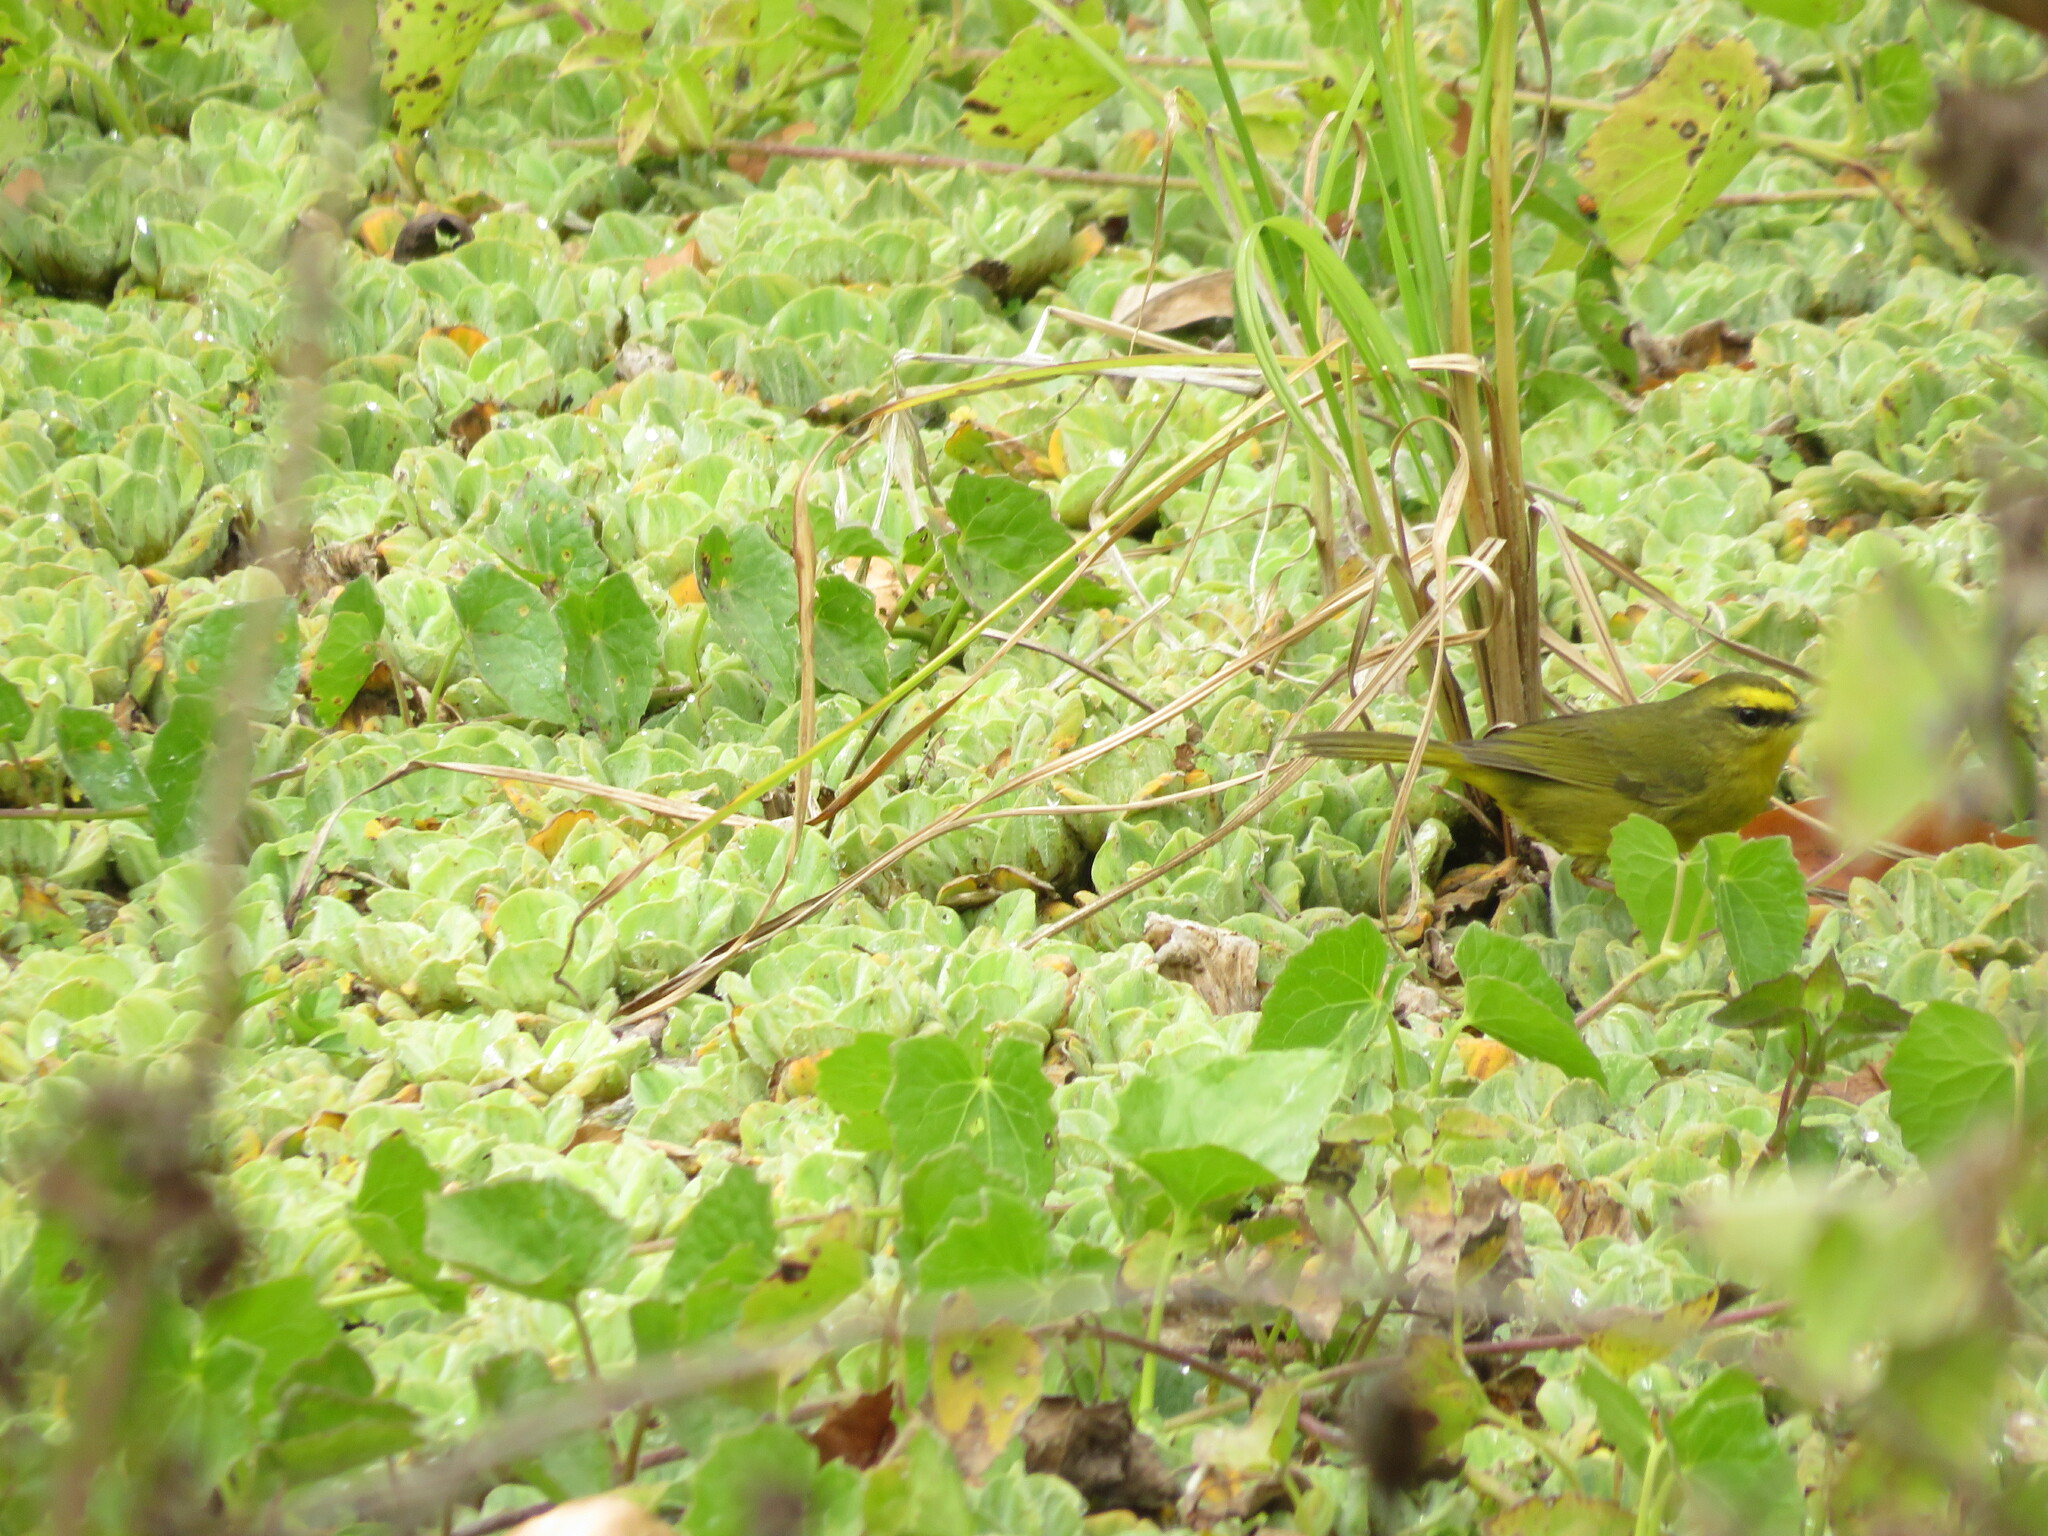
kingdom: Animalia
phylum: Chordata
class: Aves
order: Passeriformes
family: Parulidae
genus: Myiothlypis
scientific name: Myiothlypis signata
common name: Pale-legged warbler
